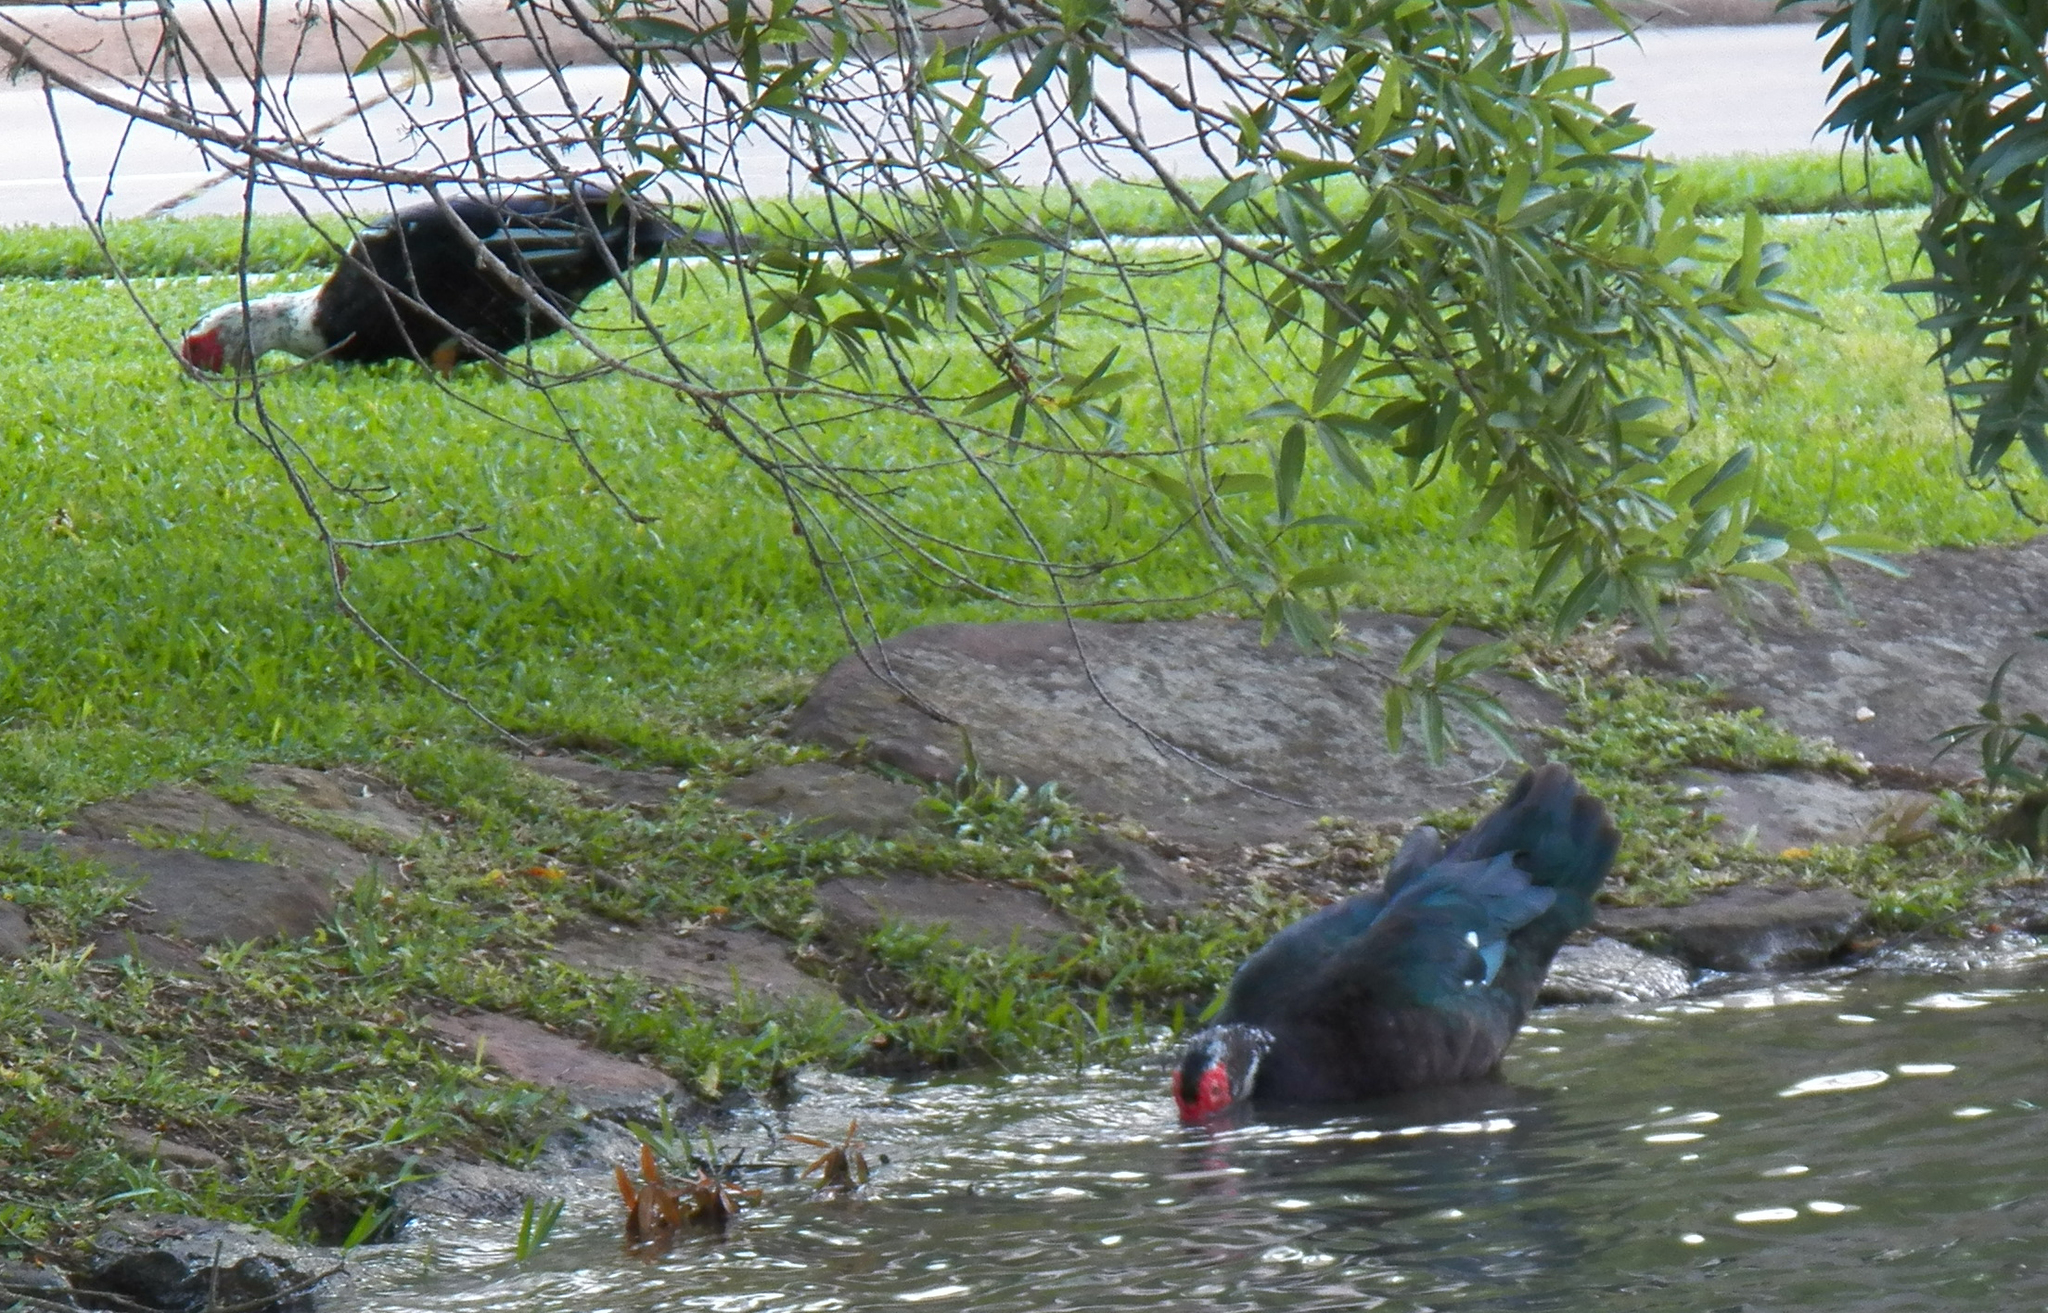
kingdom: Animalia
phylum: Chordata
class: Aves
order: Anseriformes
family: Anatidae
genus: Cairina
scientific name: Cairina moschata
